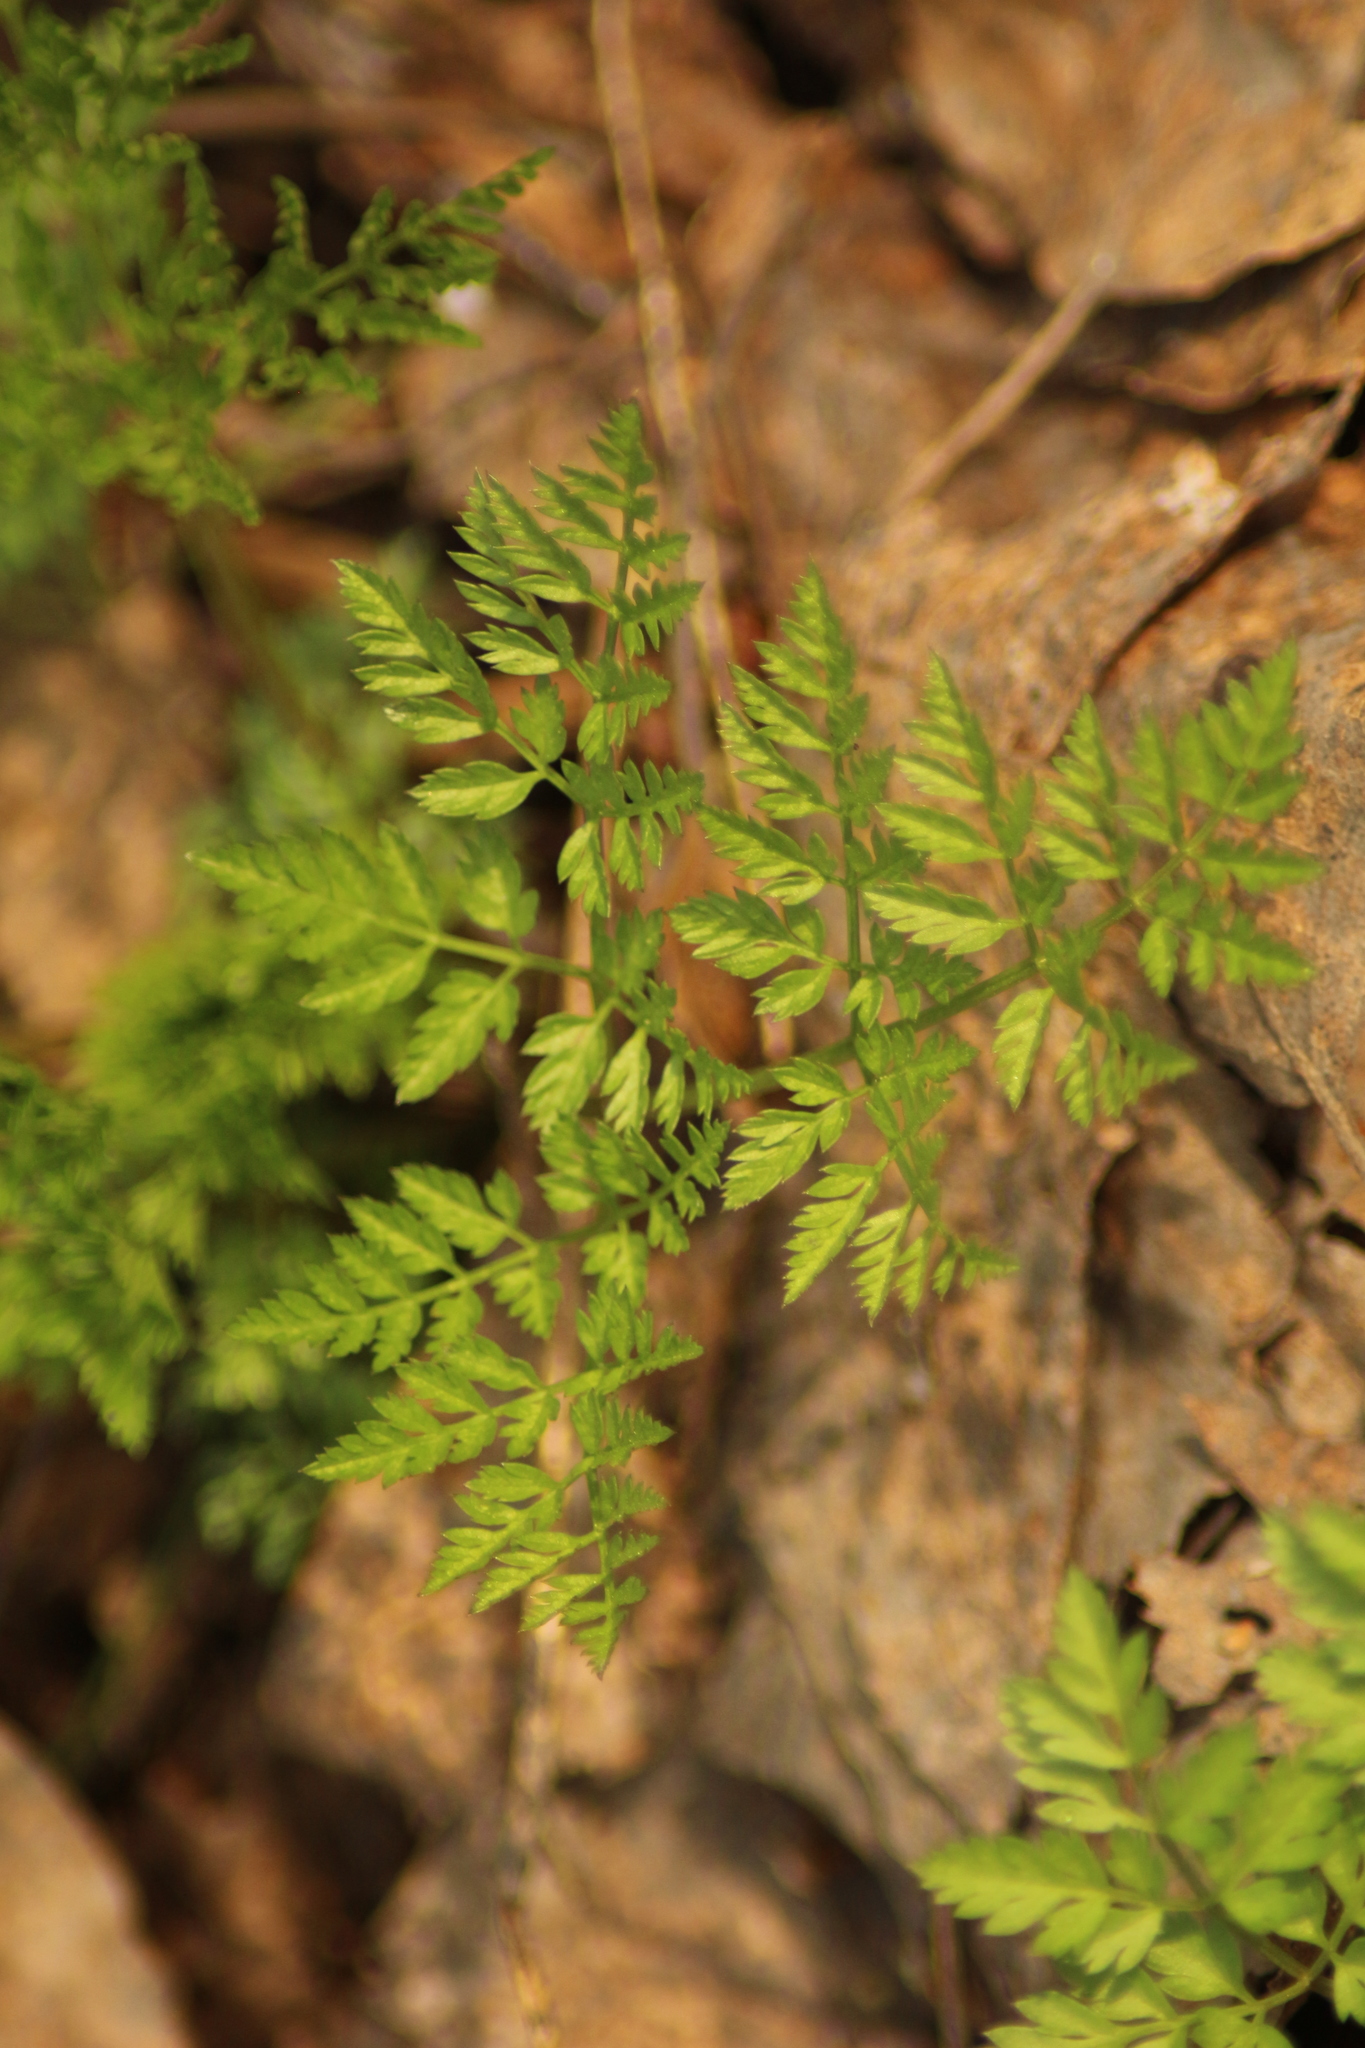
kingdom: Plantae
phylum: Tracheophyta
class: Magnoliopsida
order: Apiales
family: Apiaceae
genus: Anthriscus
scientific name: Anthriscus sylvestris
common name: Cow parsley
